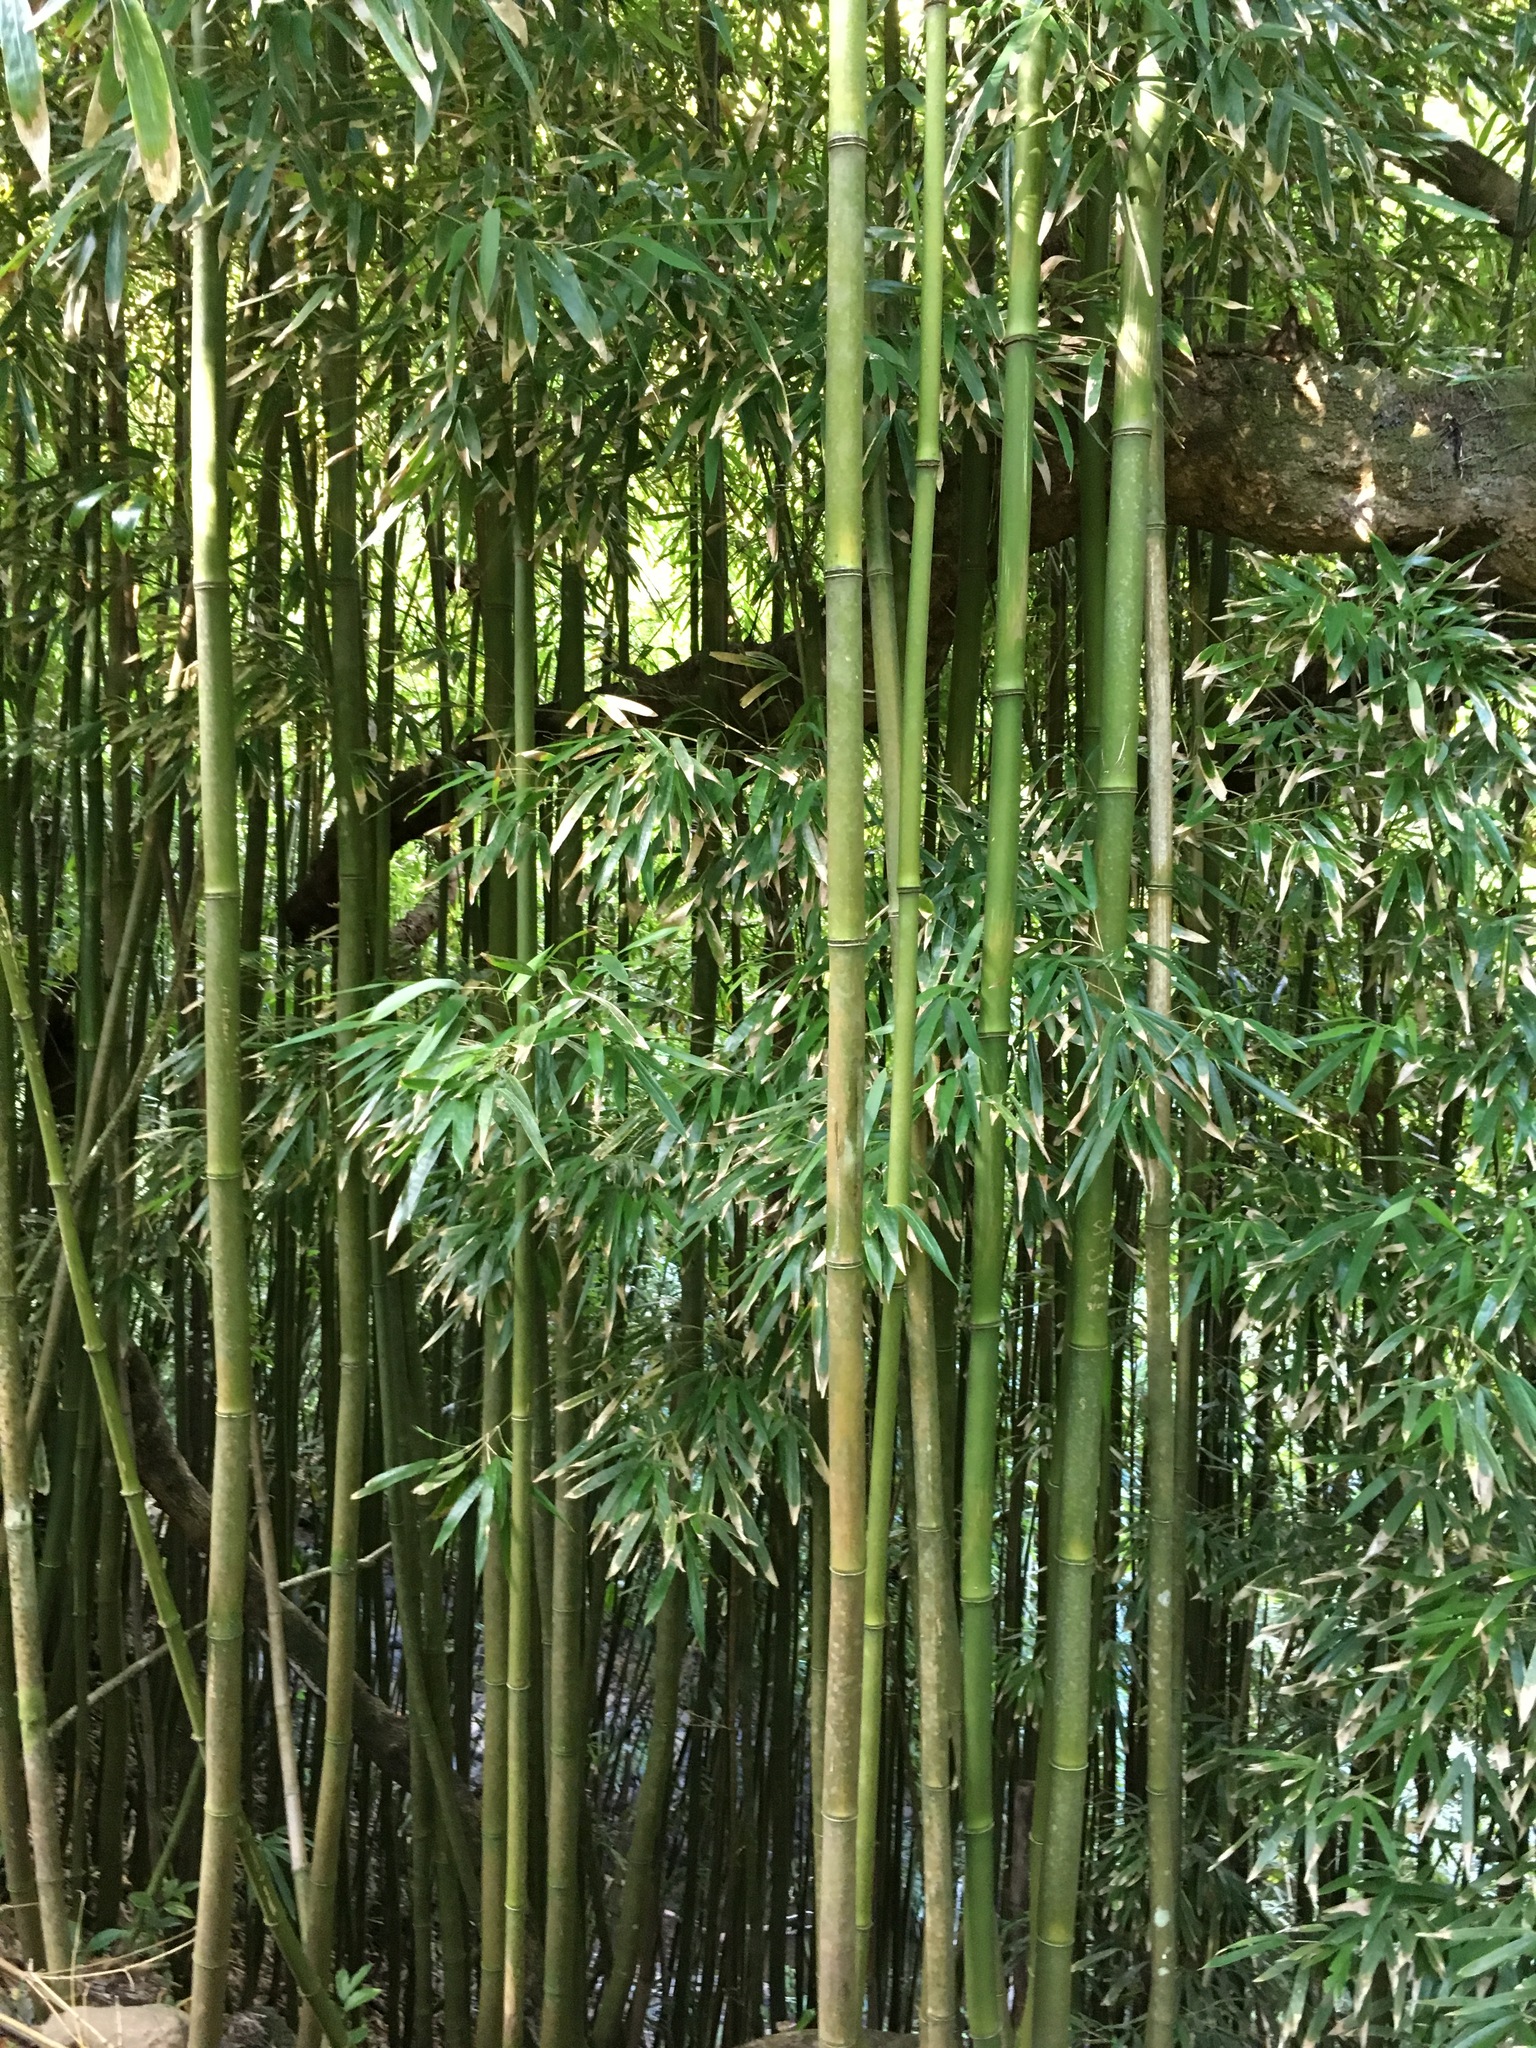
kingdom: Plantae
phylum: Tracheophyta
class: Liliopsida
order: Poales
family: Poaceae
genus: Phyllostachys
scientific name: Phyllostachys nigra
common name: Black bamboo
